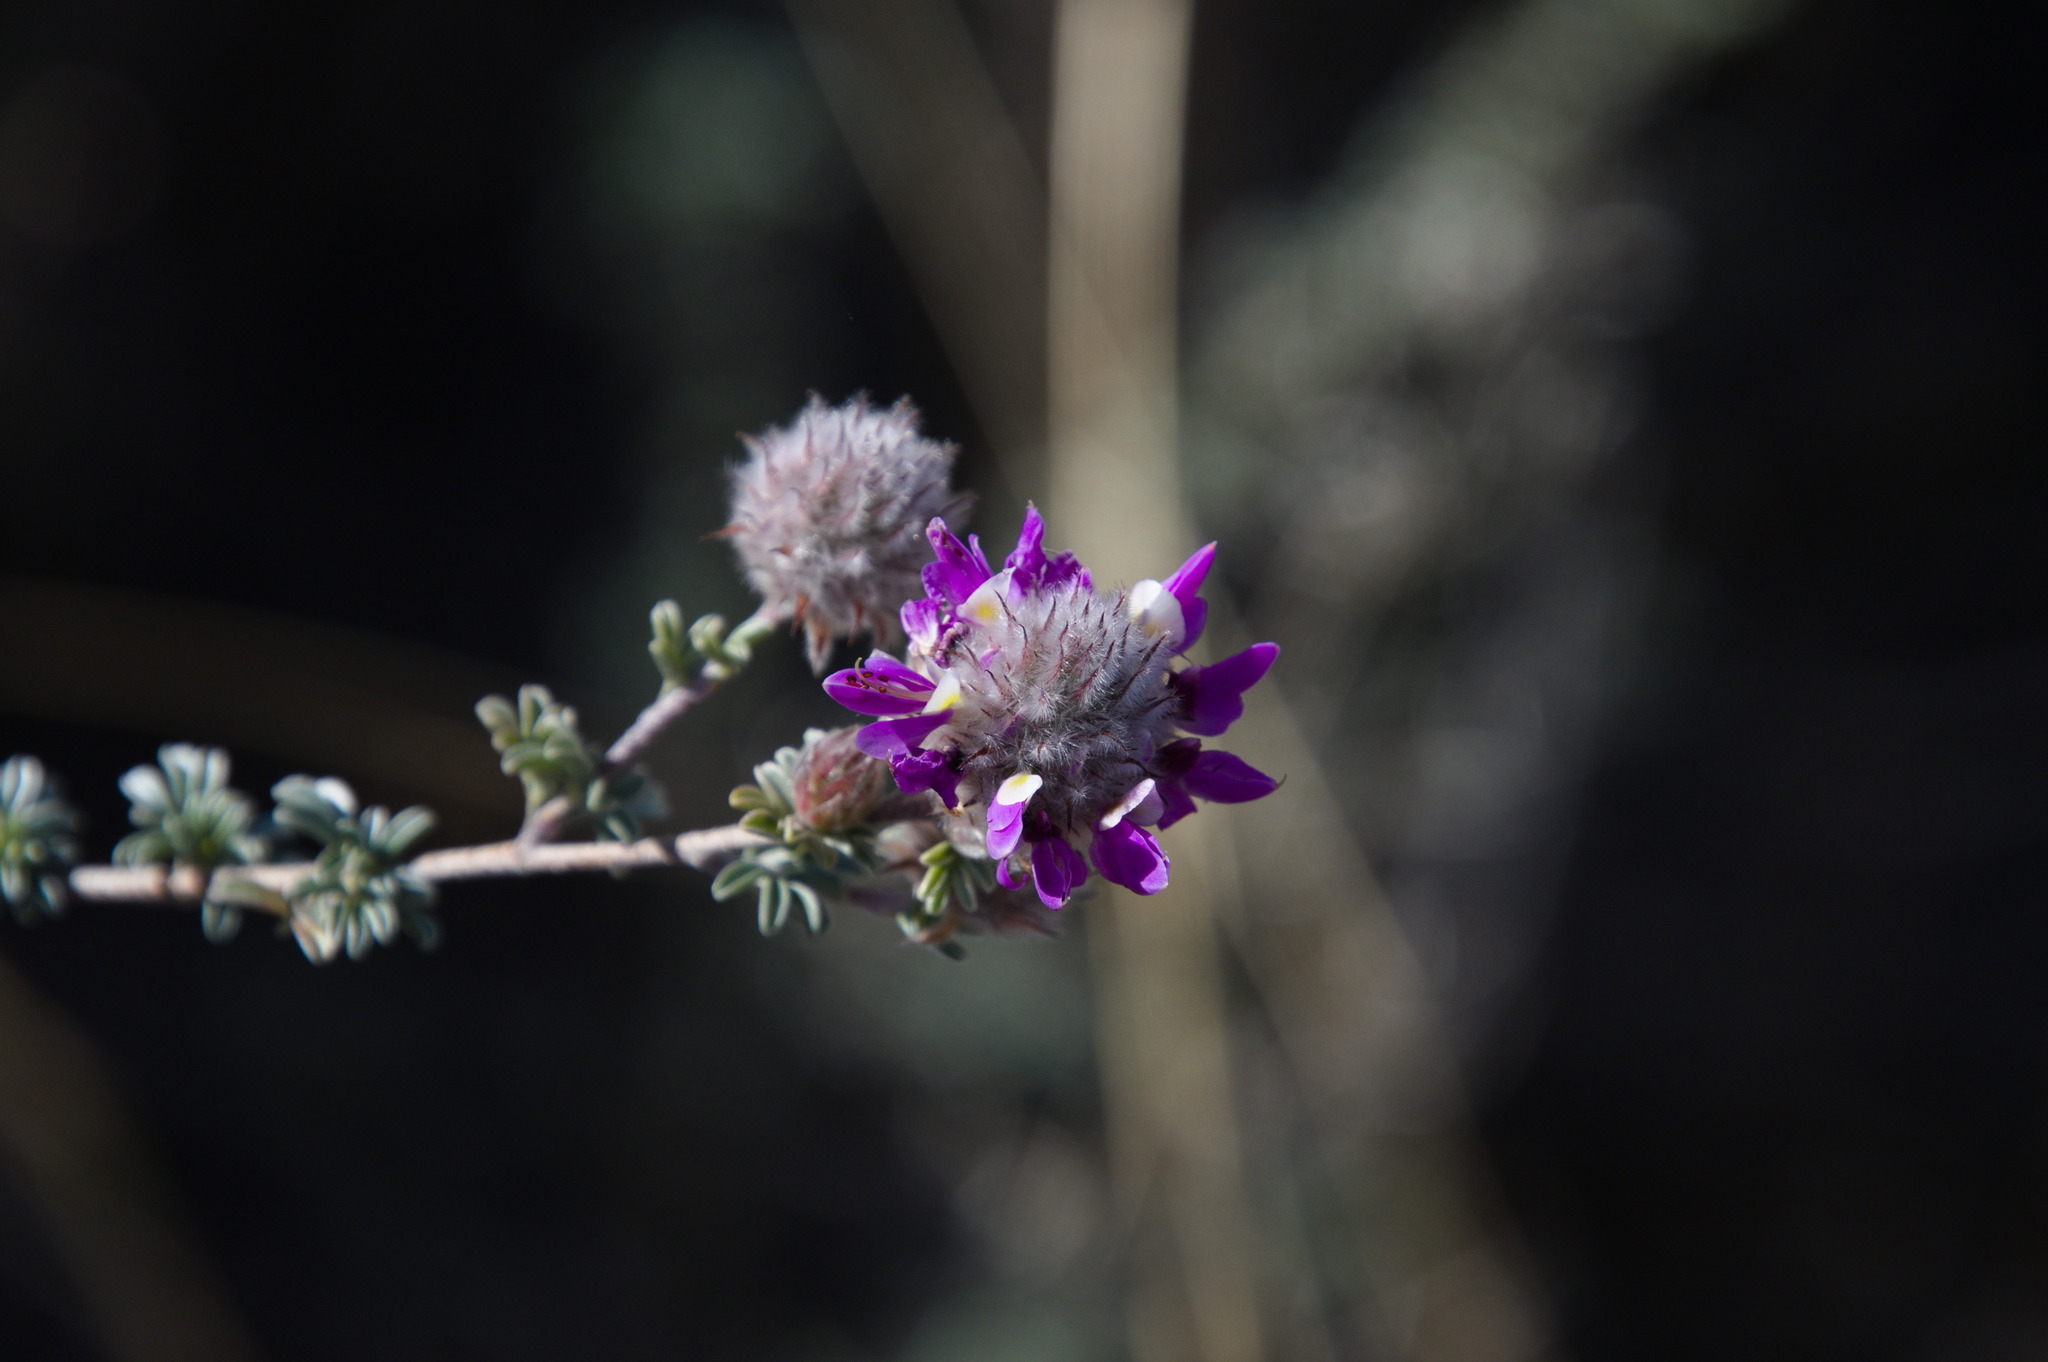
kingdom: Plantae
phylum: Tracheophyta
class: Magnoliopsida
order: Fabales
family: Fabaceae
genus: Dalea
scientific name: Dalea pulchra
